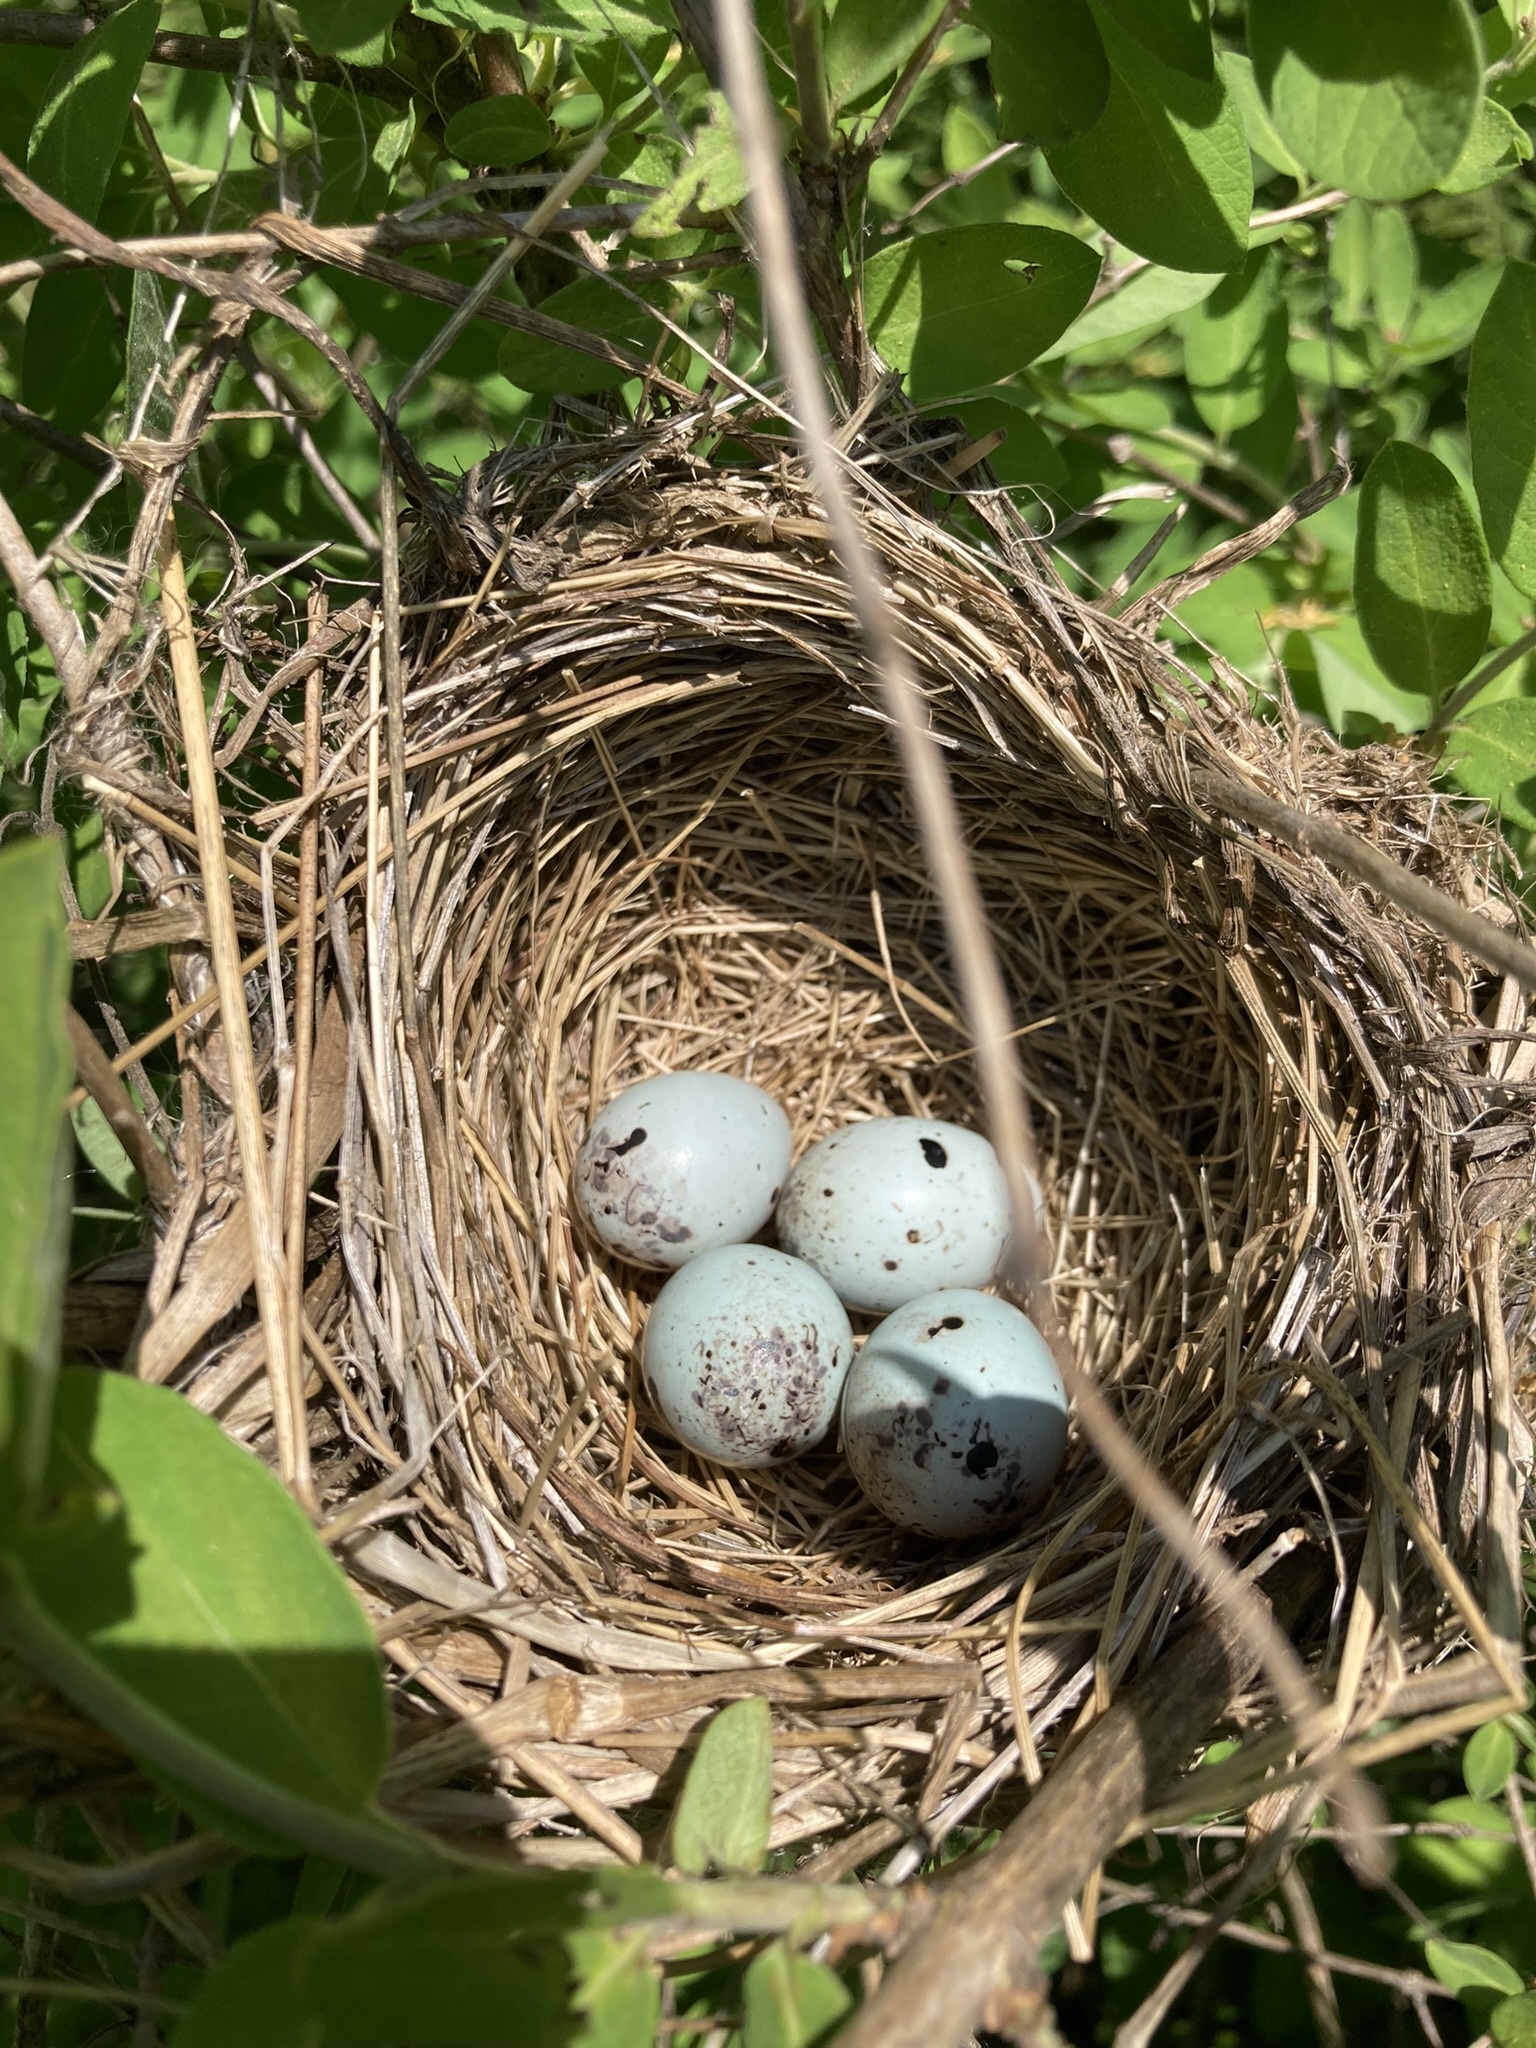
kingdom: Animalia
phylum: Chordata
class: Aves
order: Passeriformes
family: Icteridae
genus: Agelaius
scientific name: Agelaius phoeniceus
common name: Red-winged blackbird
